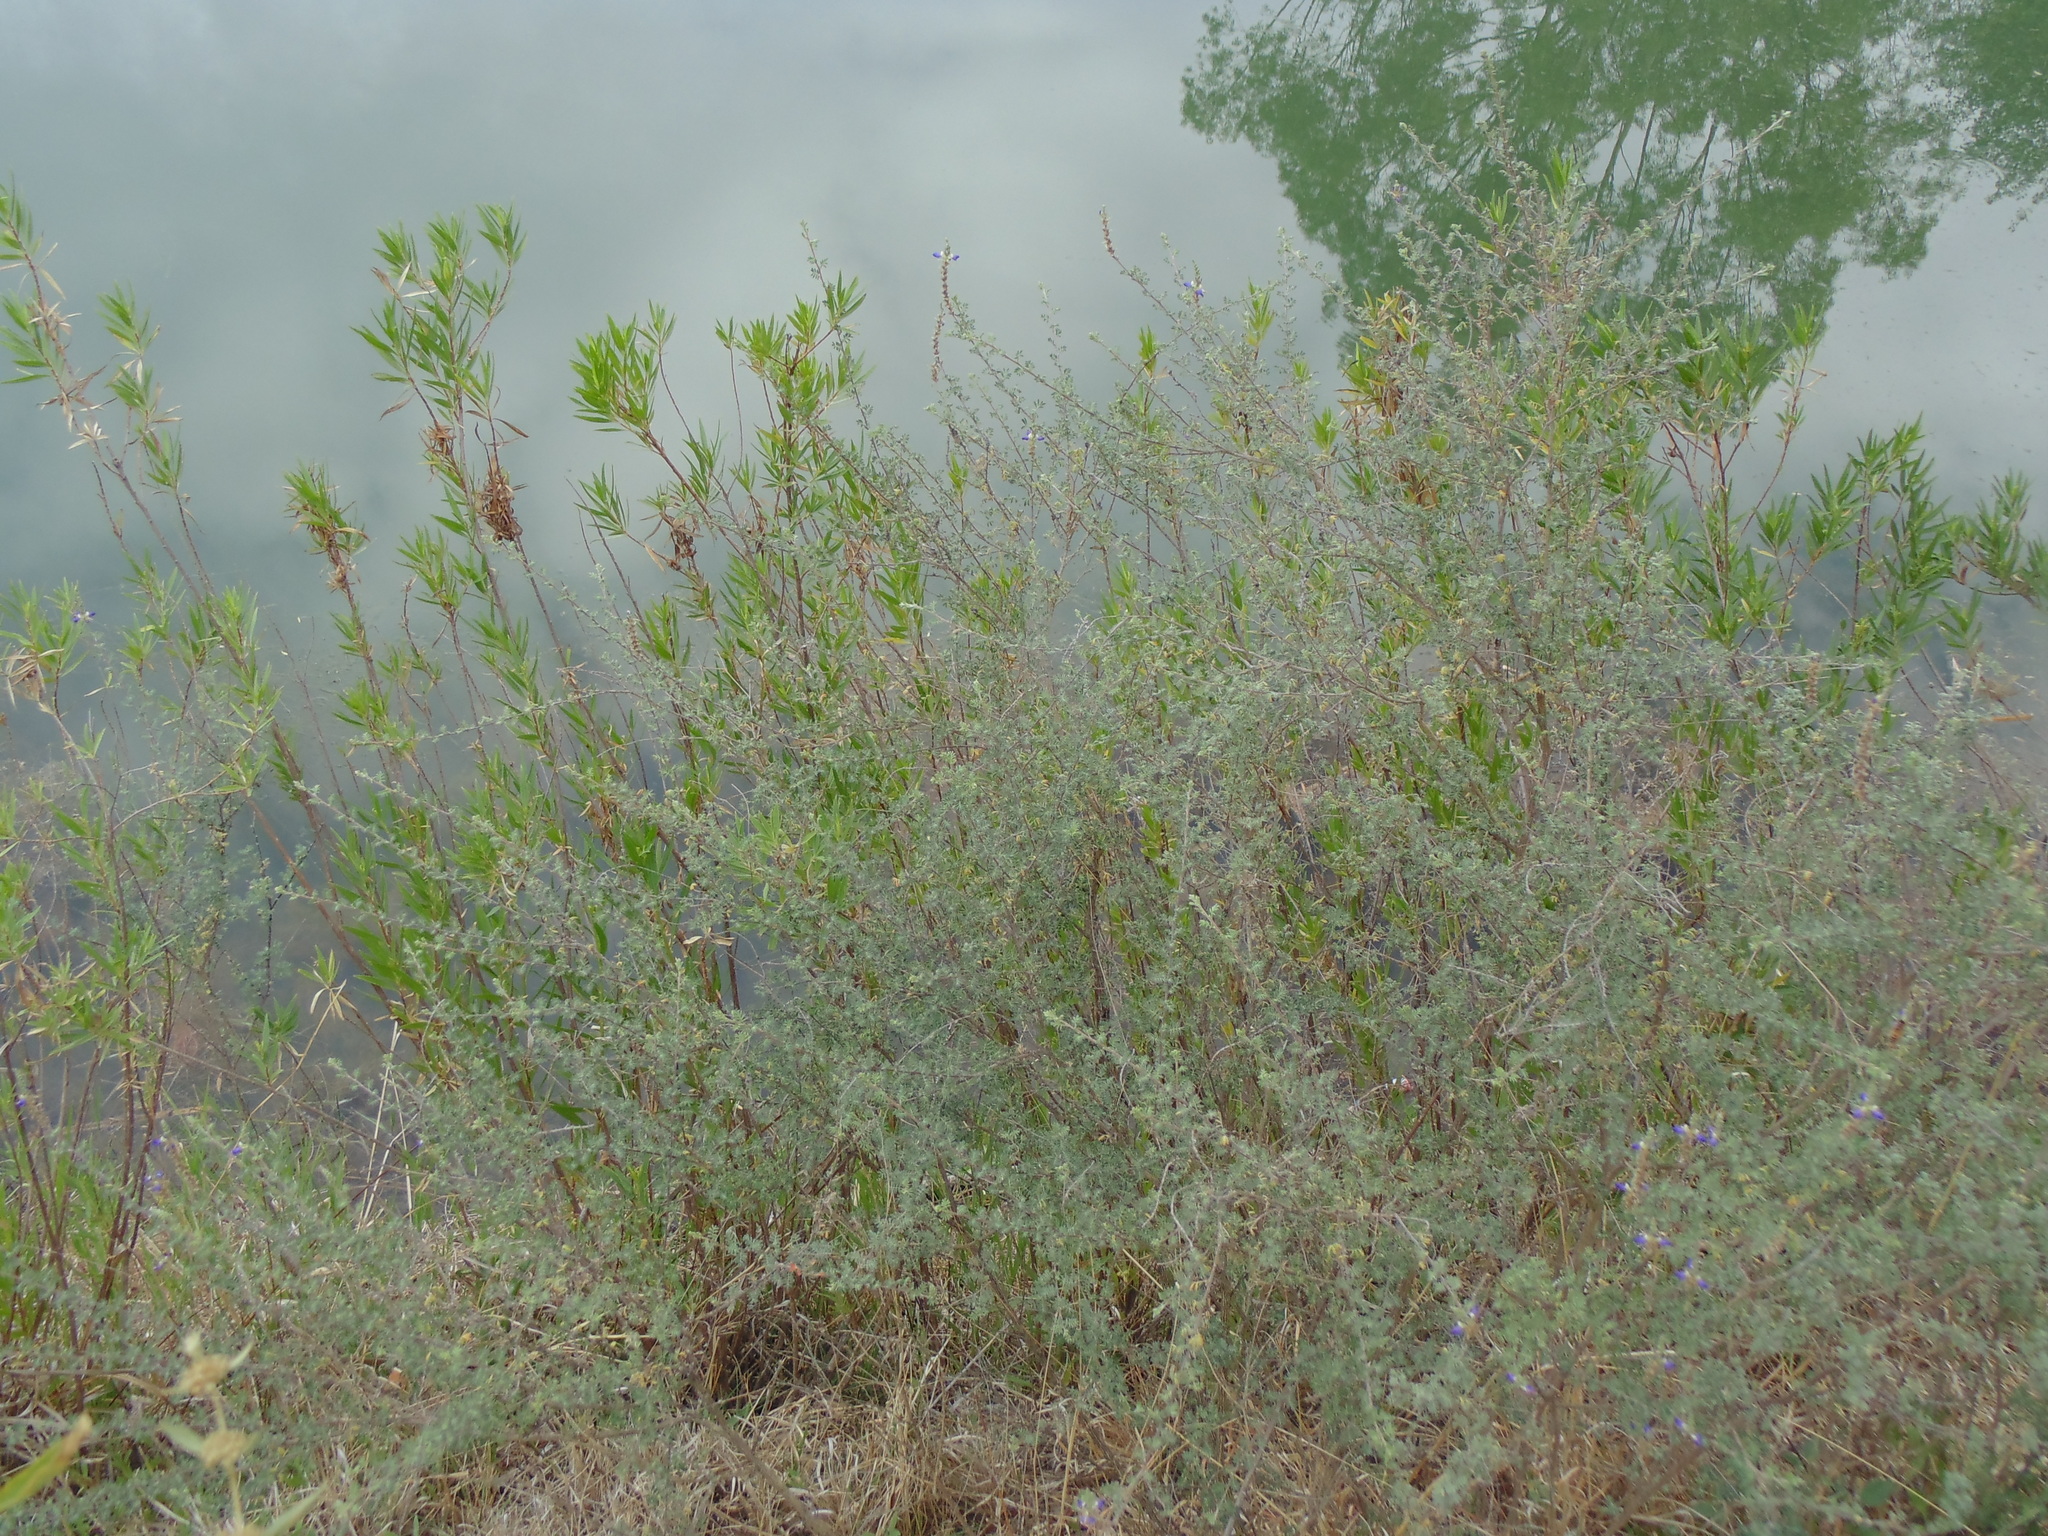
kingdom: Plantae
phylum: Tracheophyta
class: Magnoliopsida
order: Fabales
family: Fabaceae
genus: Dalea
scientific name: Dalea bicolor
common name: Silver prairie-clover
